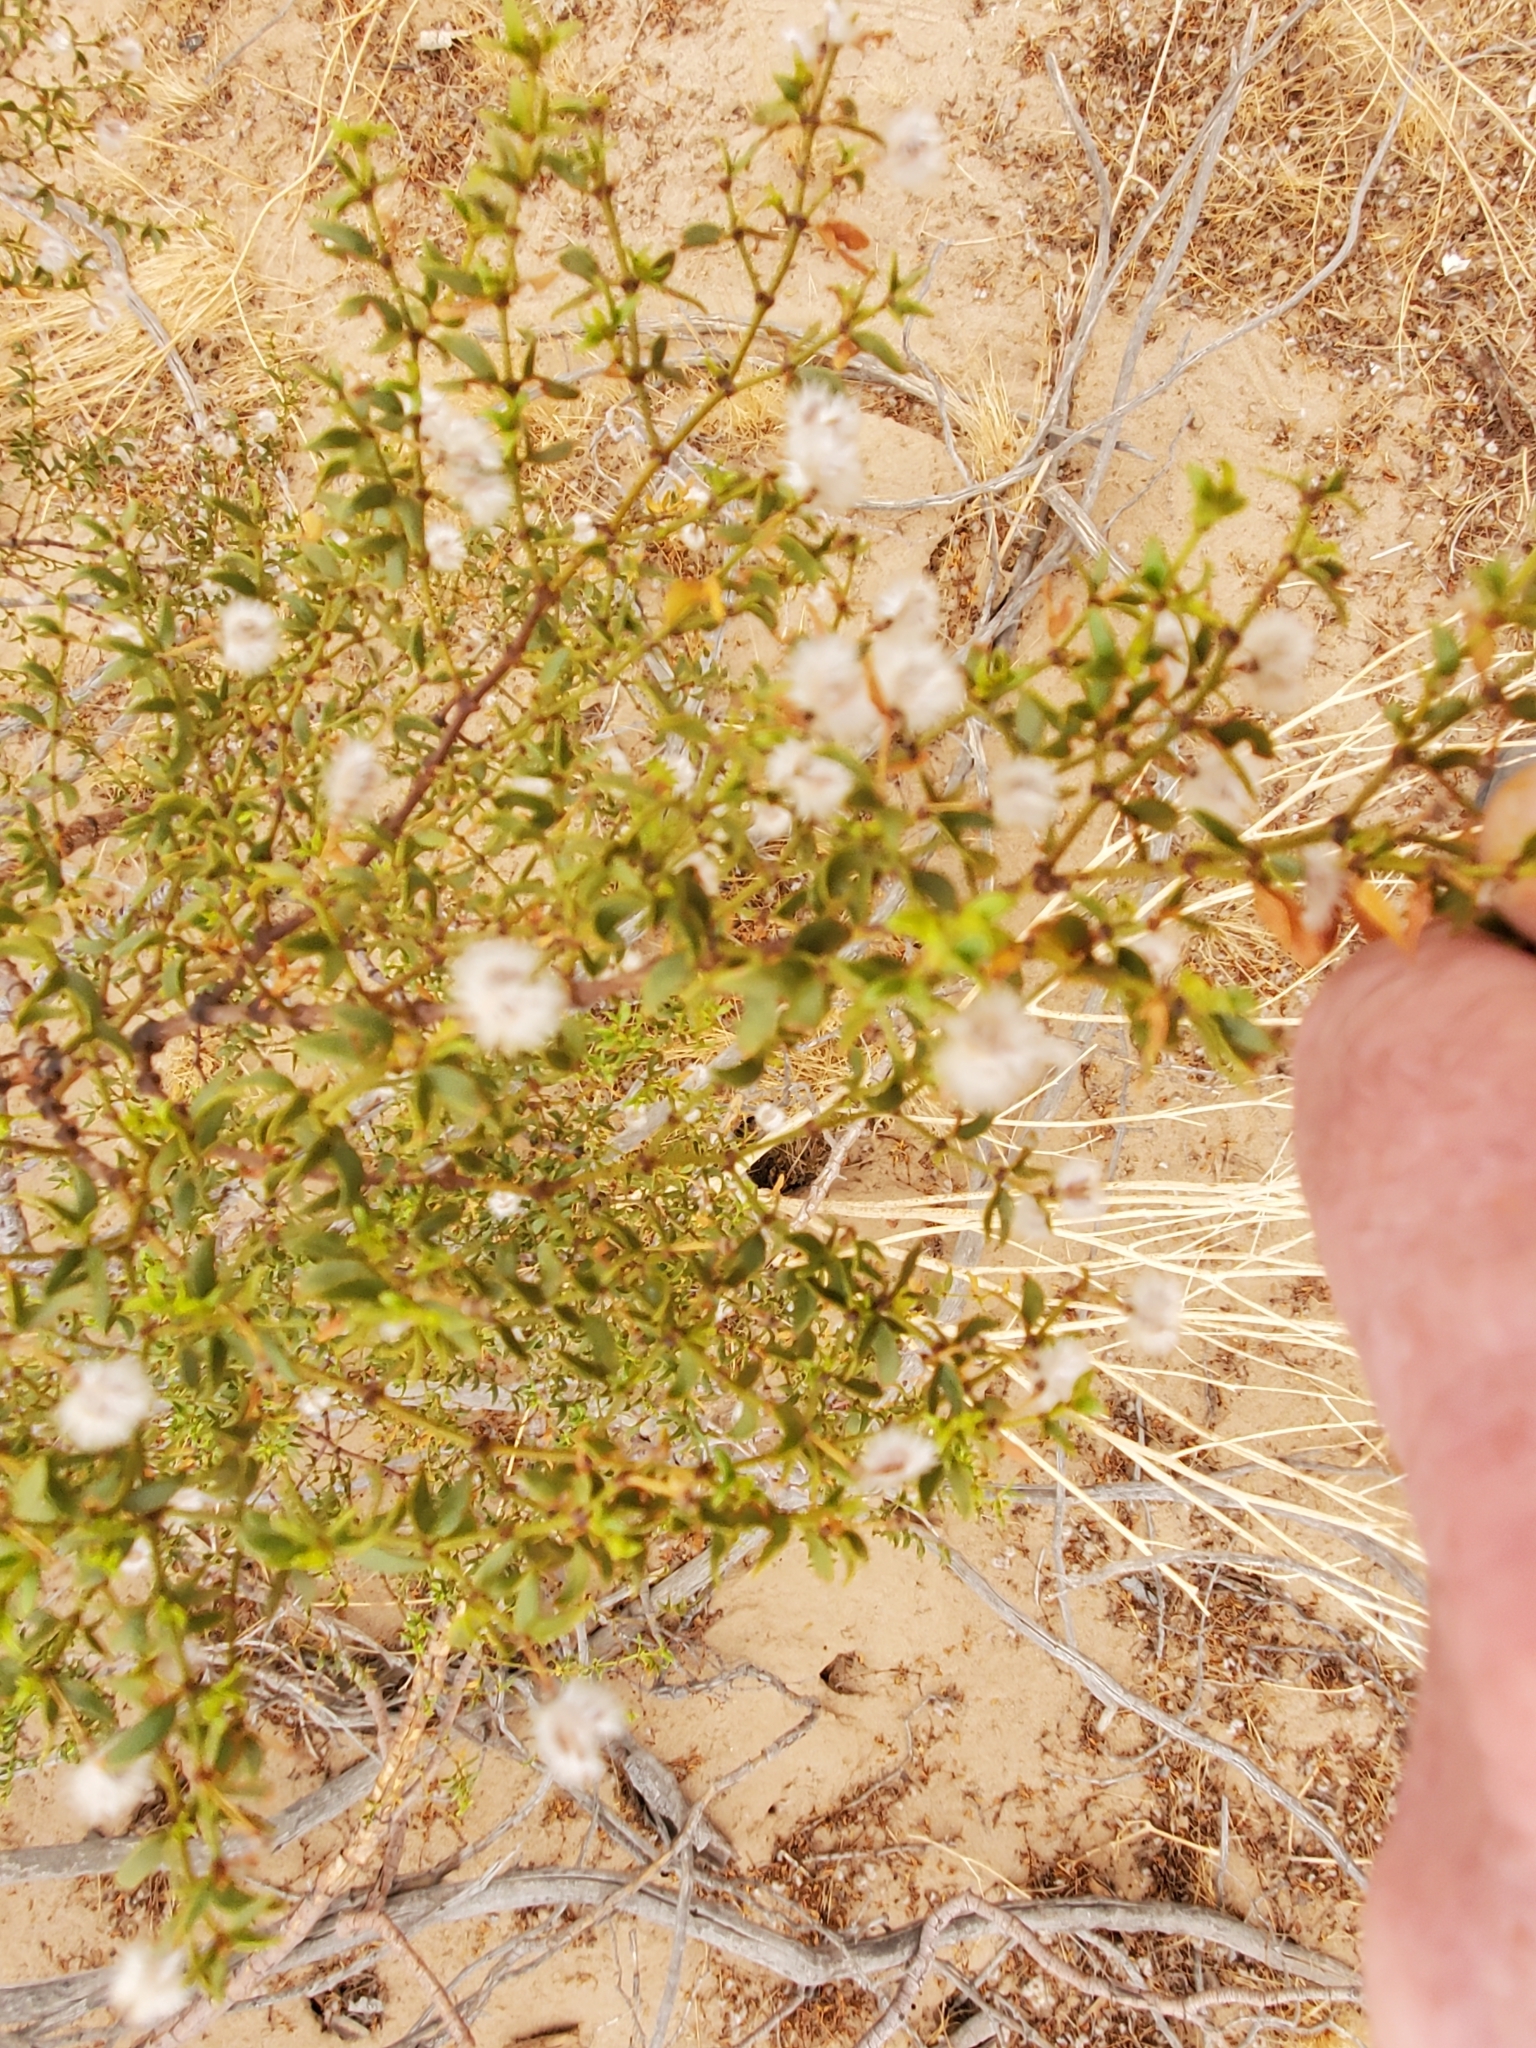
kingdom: Plantae
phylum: Tracheophyta
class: Magnoliopsida
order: Zygophyllales
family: Zygophyllaceae
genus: Larrea
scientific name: Larrea tridentata
